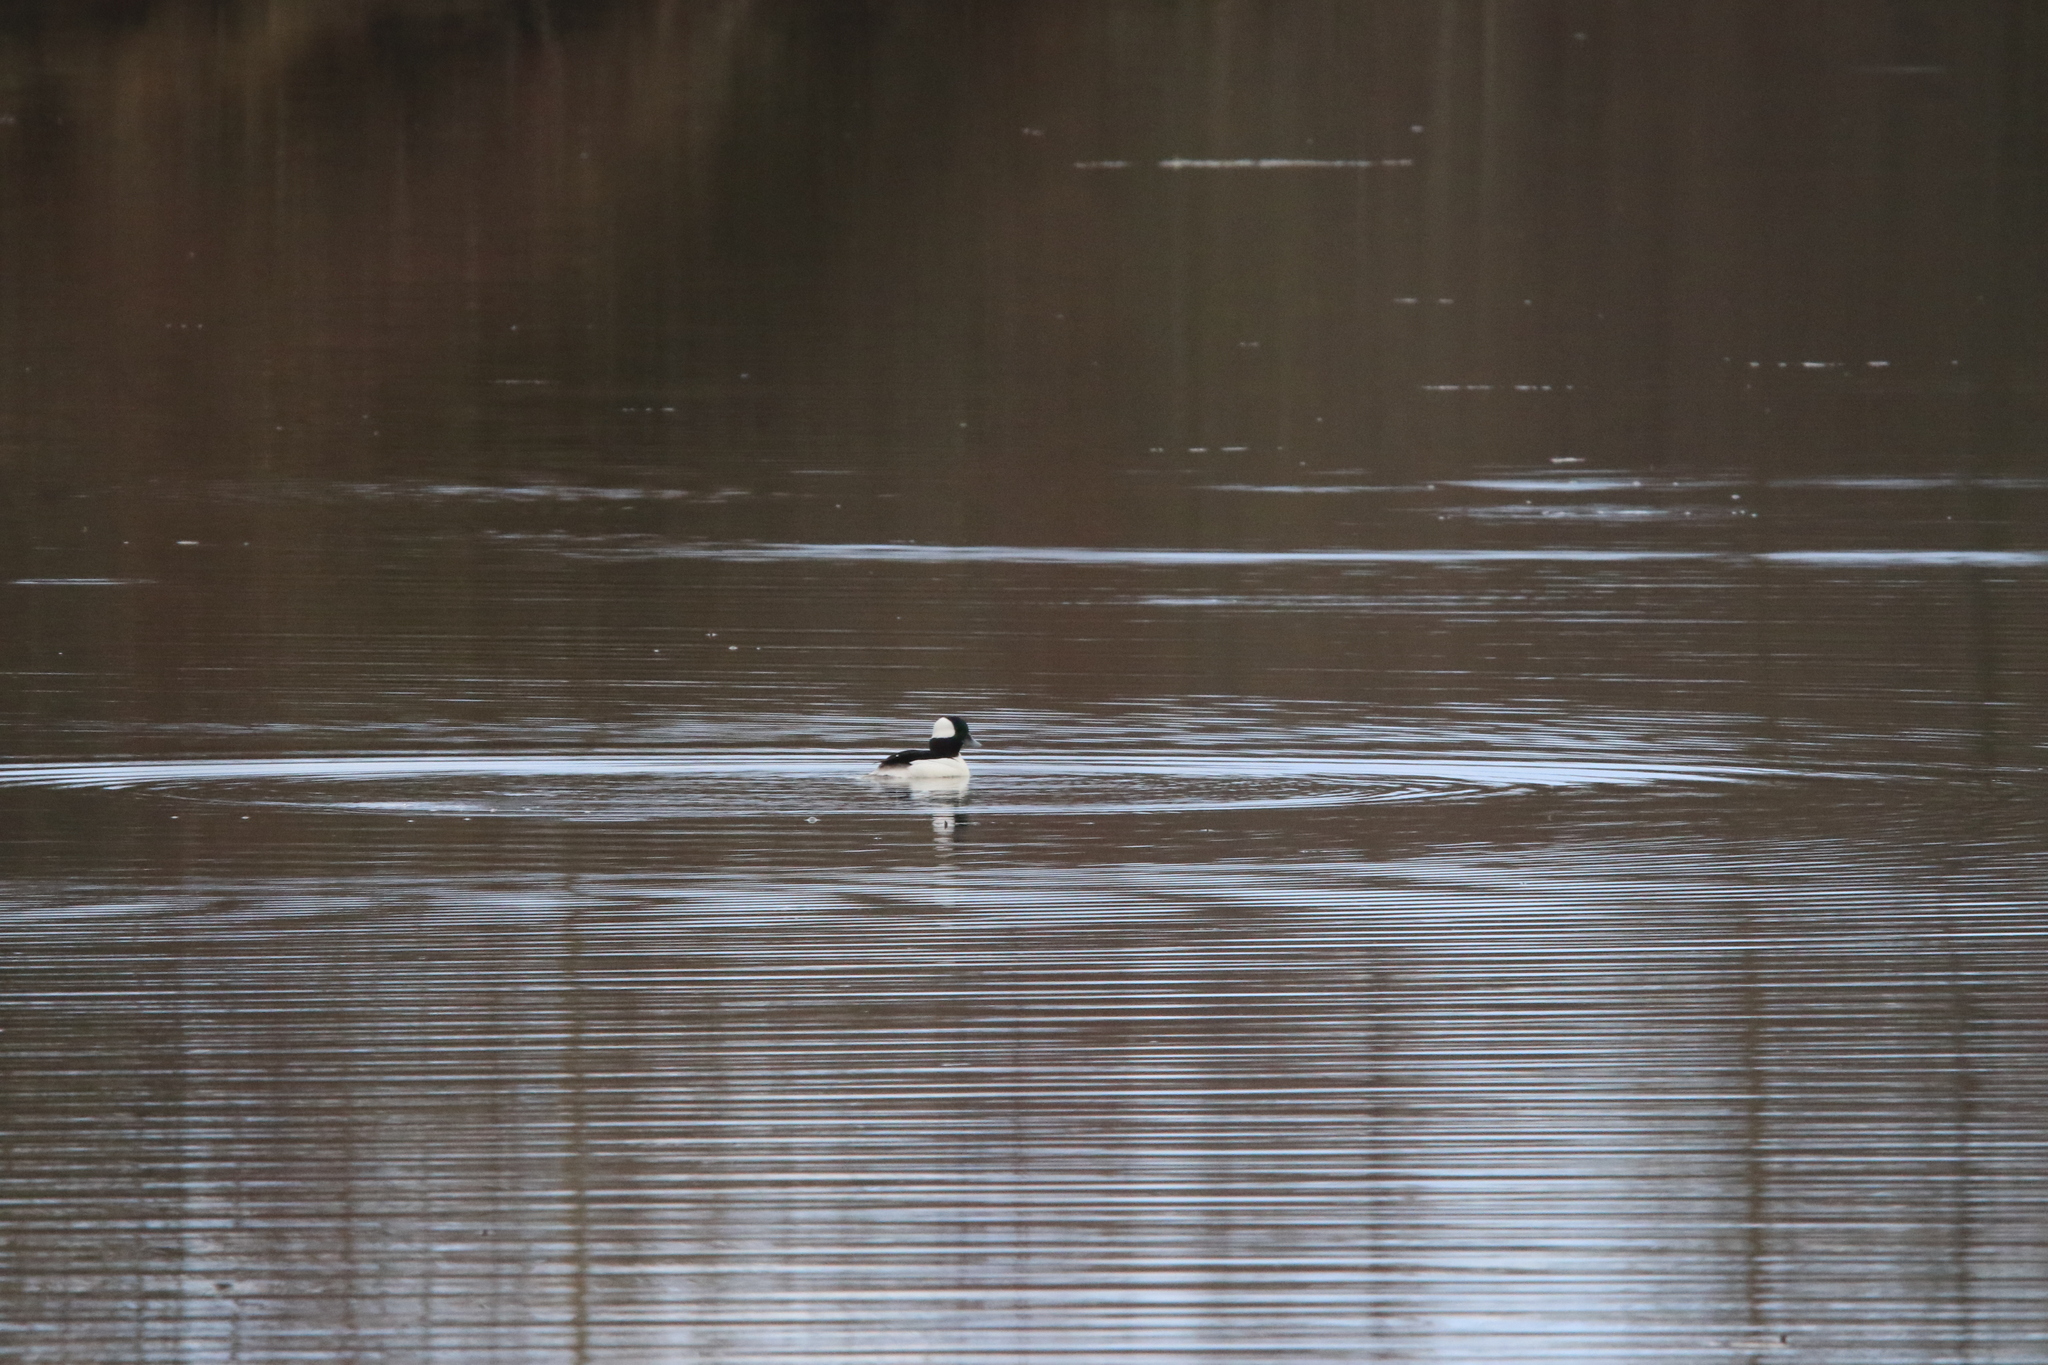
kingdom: Animalia
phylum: Chordata
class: Aves
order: Anseriformes
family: Anatidae
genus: Bucephala
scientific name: Bucephala albeola
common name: Bufflehead
